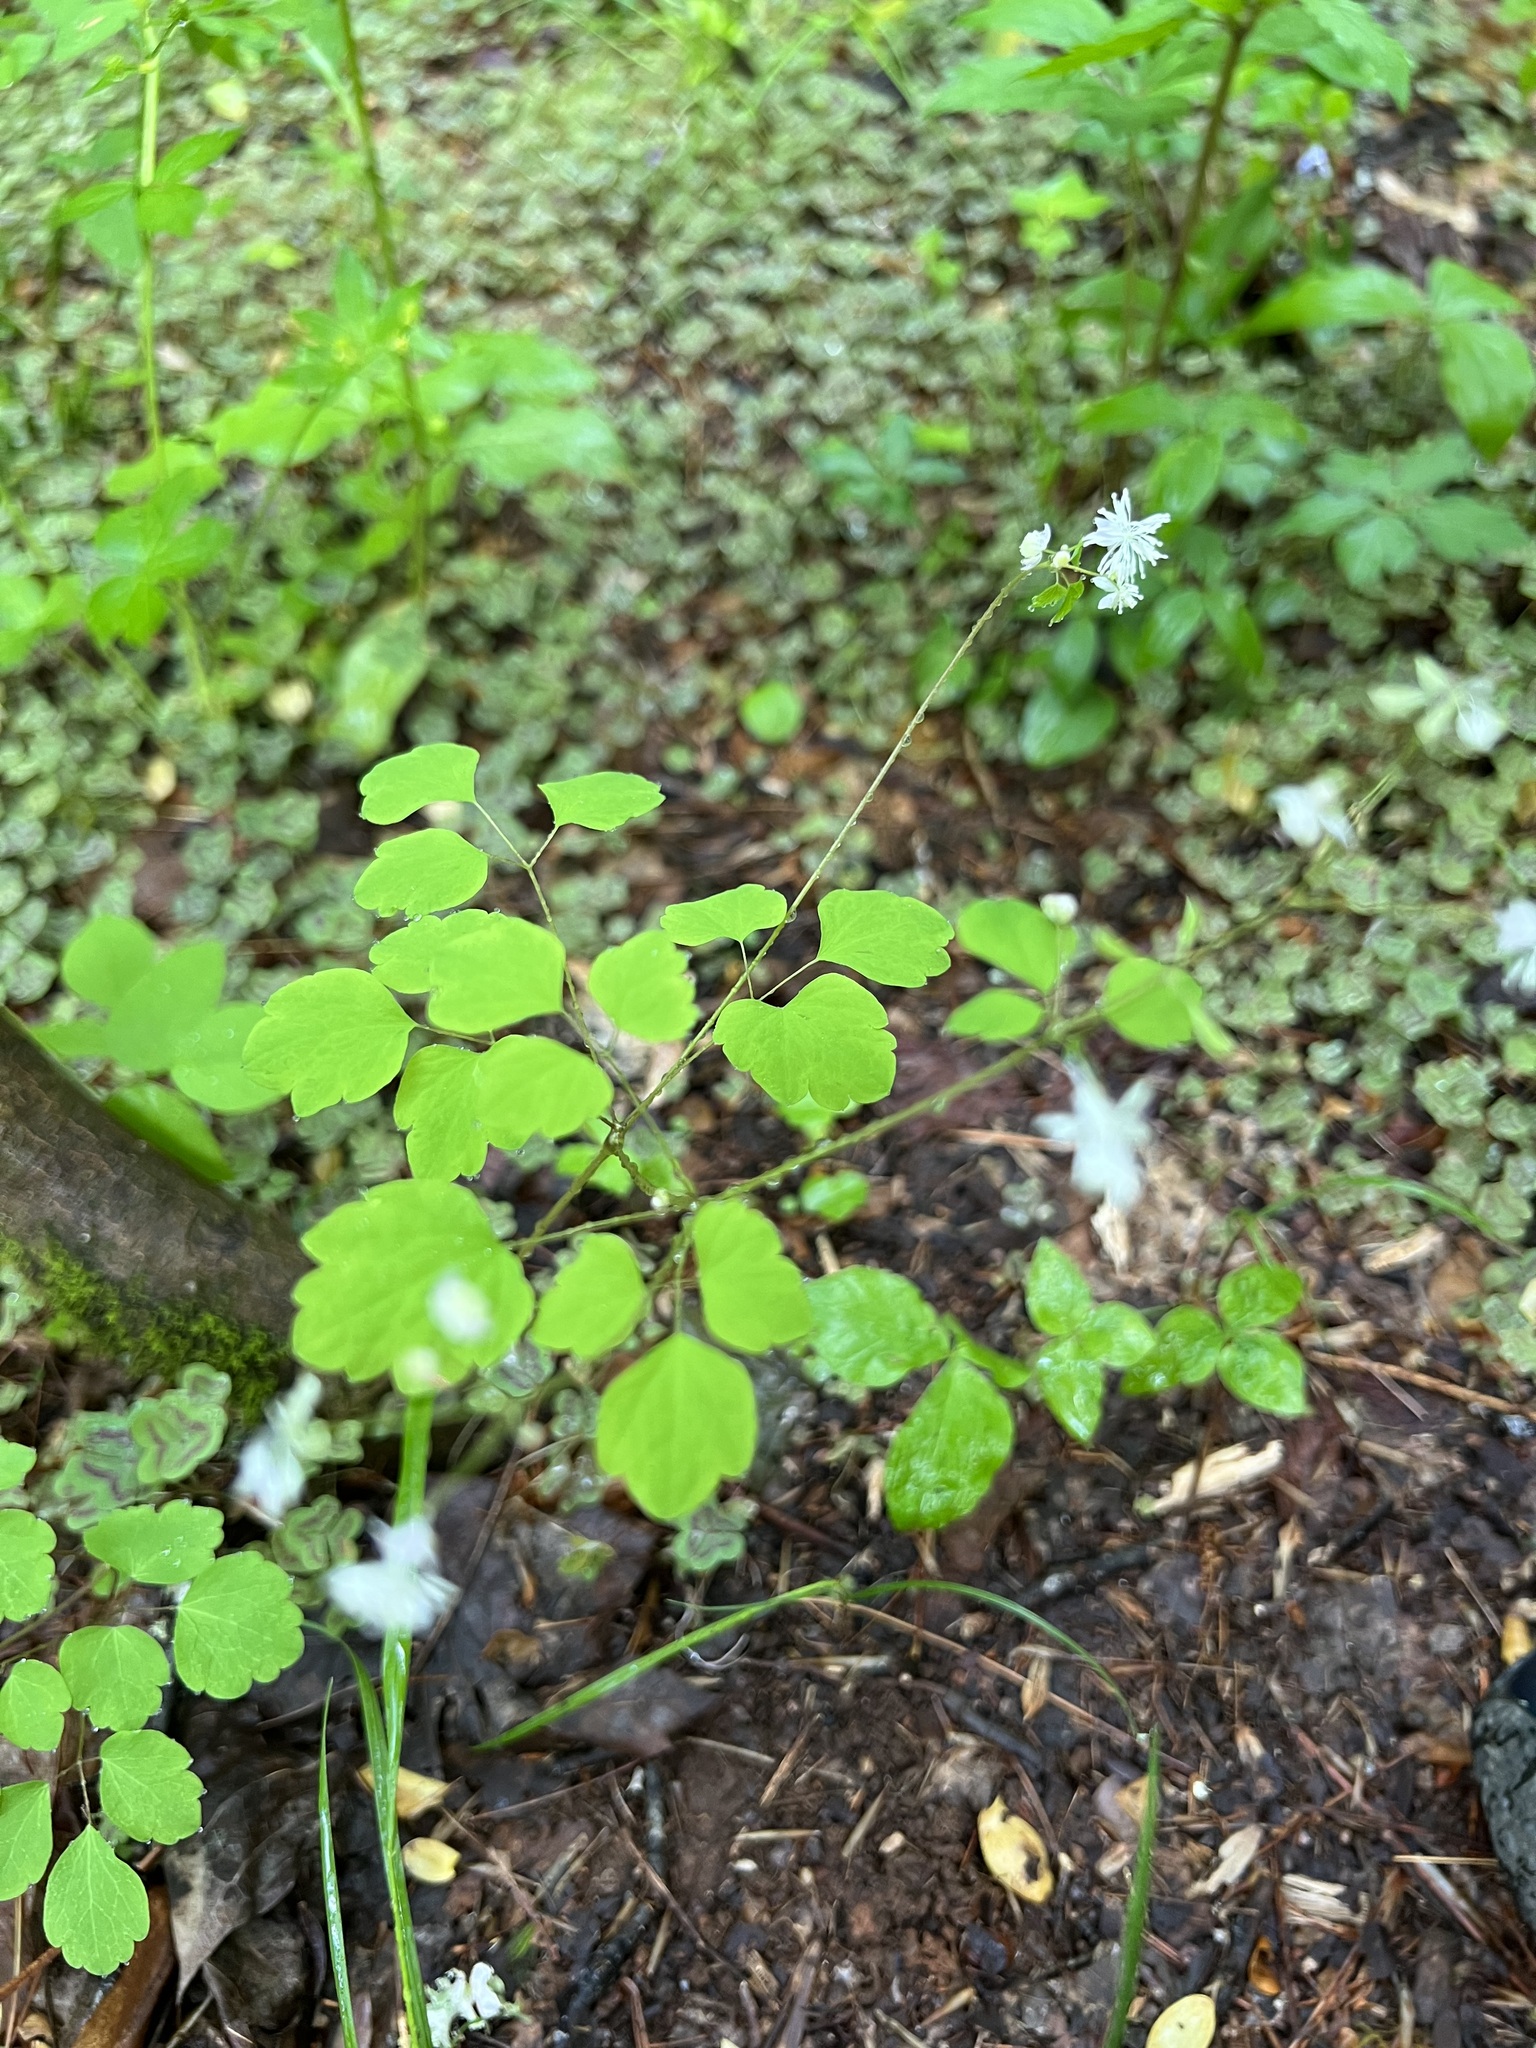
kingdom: Plantae
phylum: Tracheophyta
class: Magnoliopsida
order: Ranunculales
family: Ranunculaceae
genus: Thalictrum
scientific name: Thalictrum clavatum
